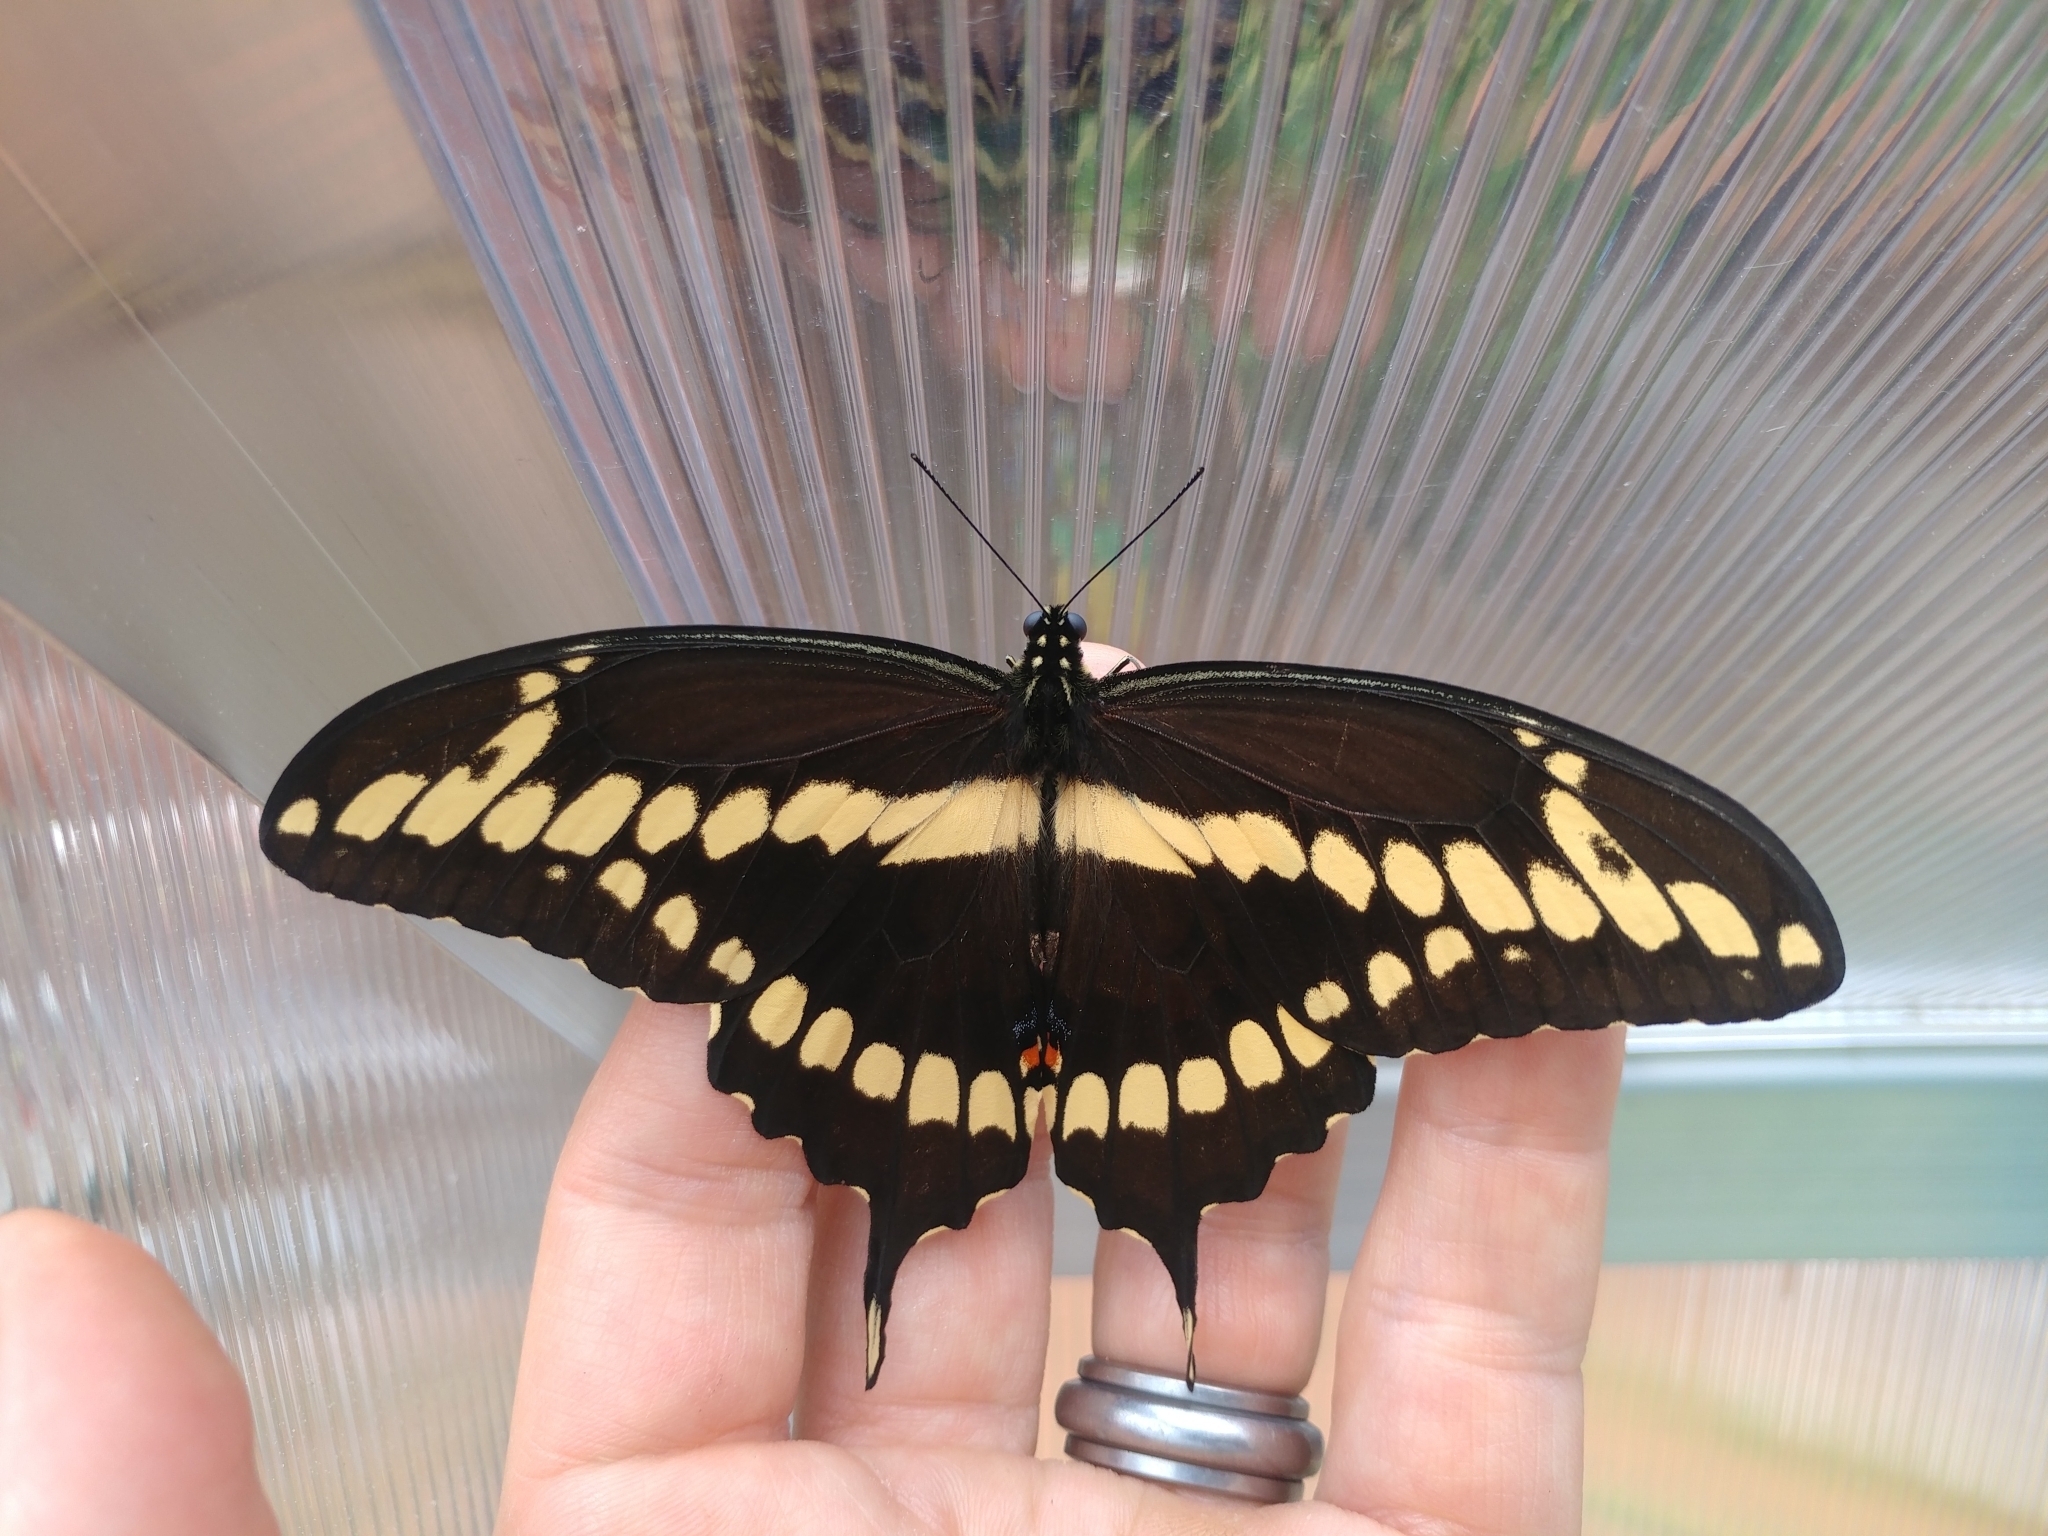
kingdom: Animalia
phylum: Arthropoda
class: Insecta
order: Lepidoptera
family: Papilionidae
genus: Papilio
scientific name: Papilio cresphontes
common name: Giant swallowtail
